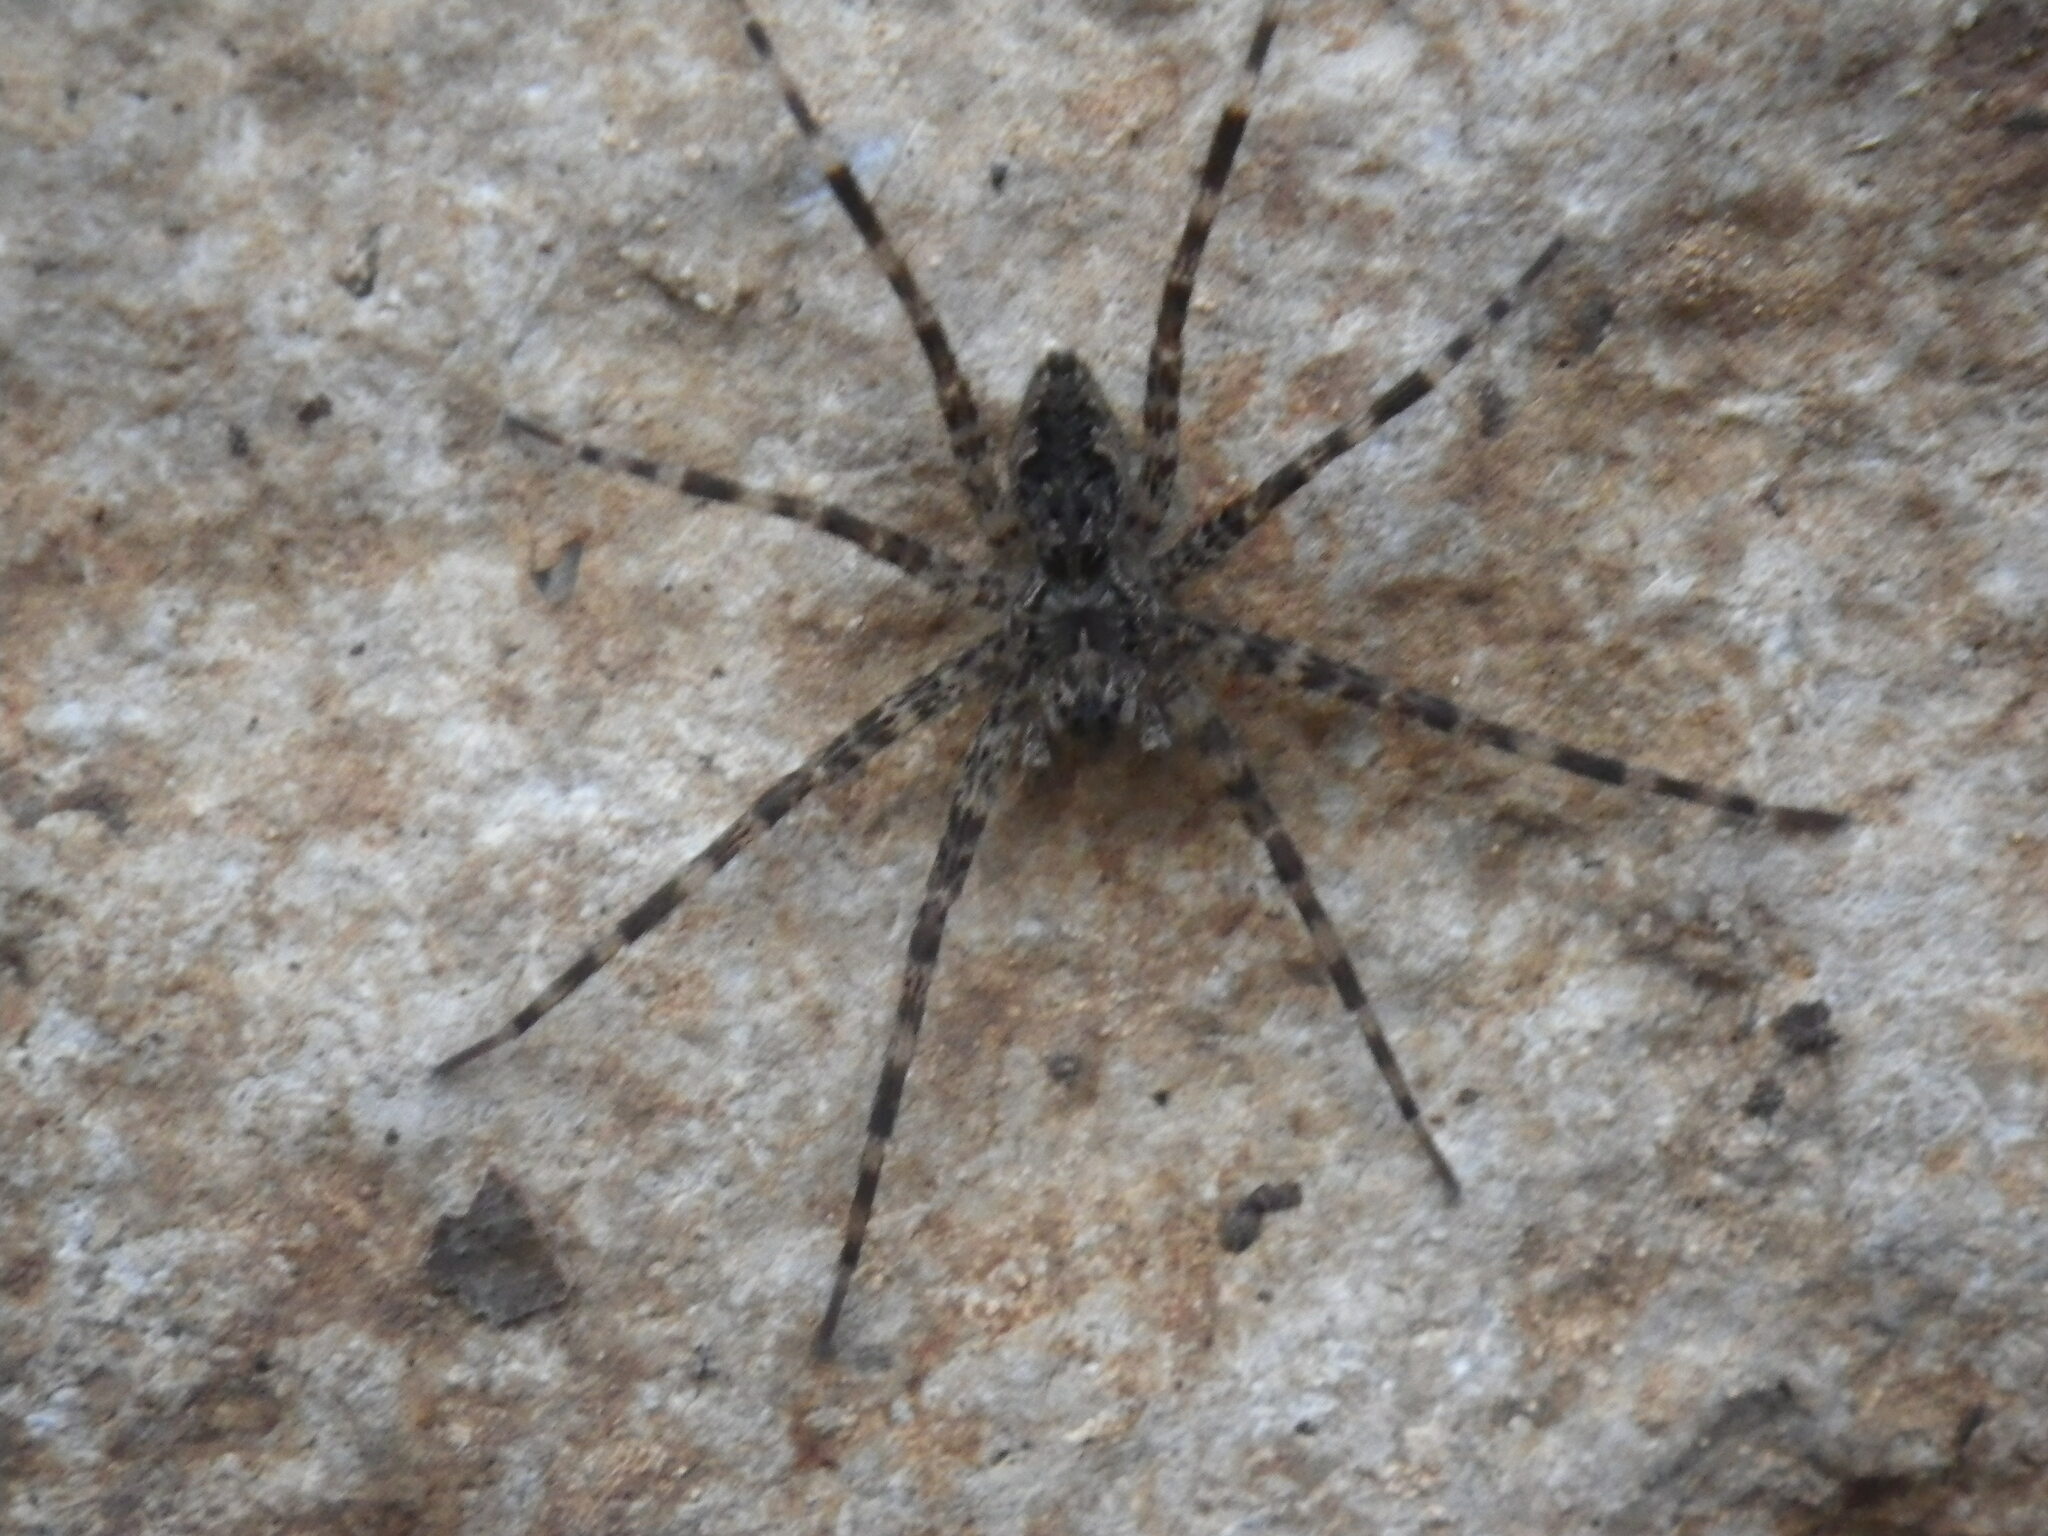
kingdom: Animalia
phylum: Arthropoda
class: Arachnida
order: Araneae
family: Pisauridae
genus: Dolomedes
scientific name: Dolomedes tenebrosus
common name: Dark fishing spider
